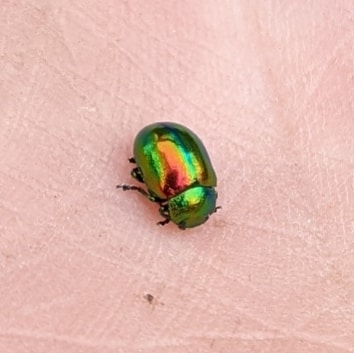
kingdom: Animalia
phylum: Arthropoda
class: Insecta
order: Coleoptera
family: Chrysomelidae
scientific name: Chrysomelidae
